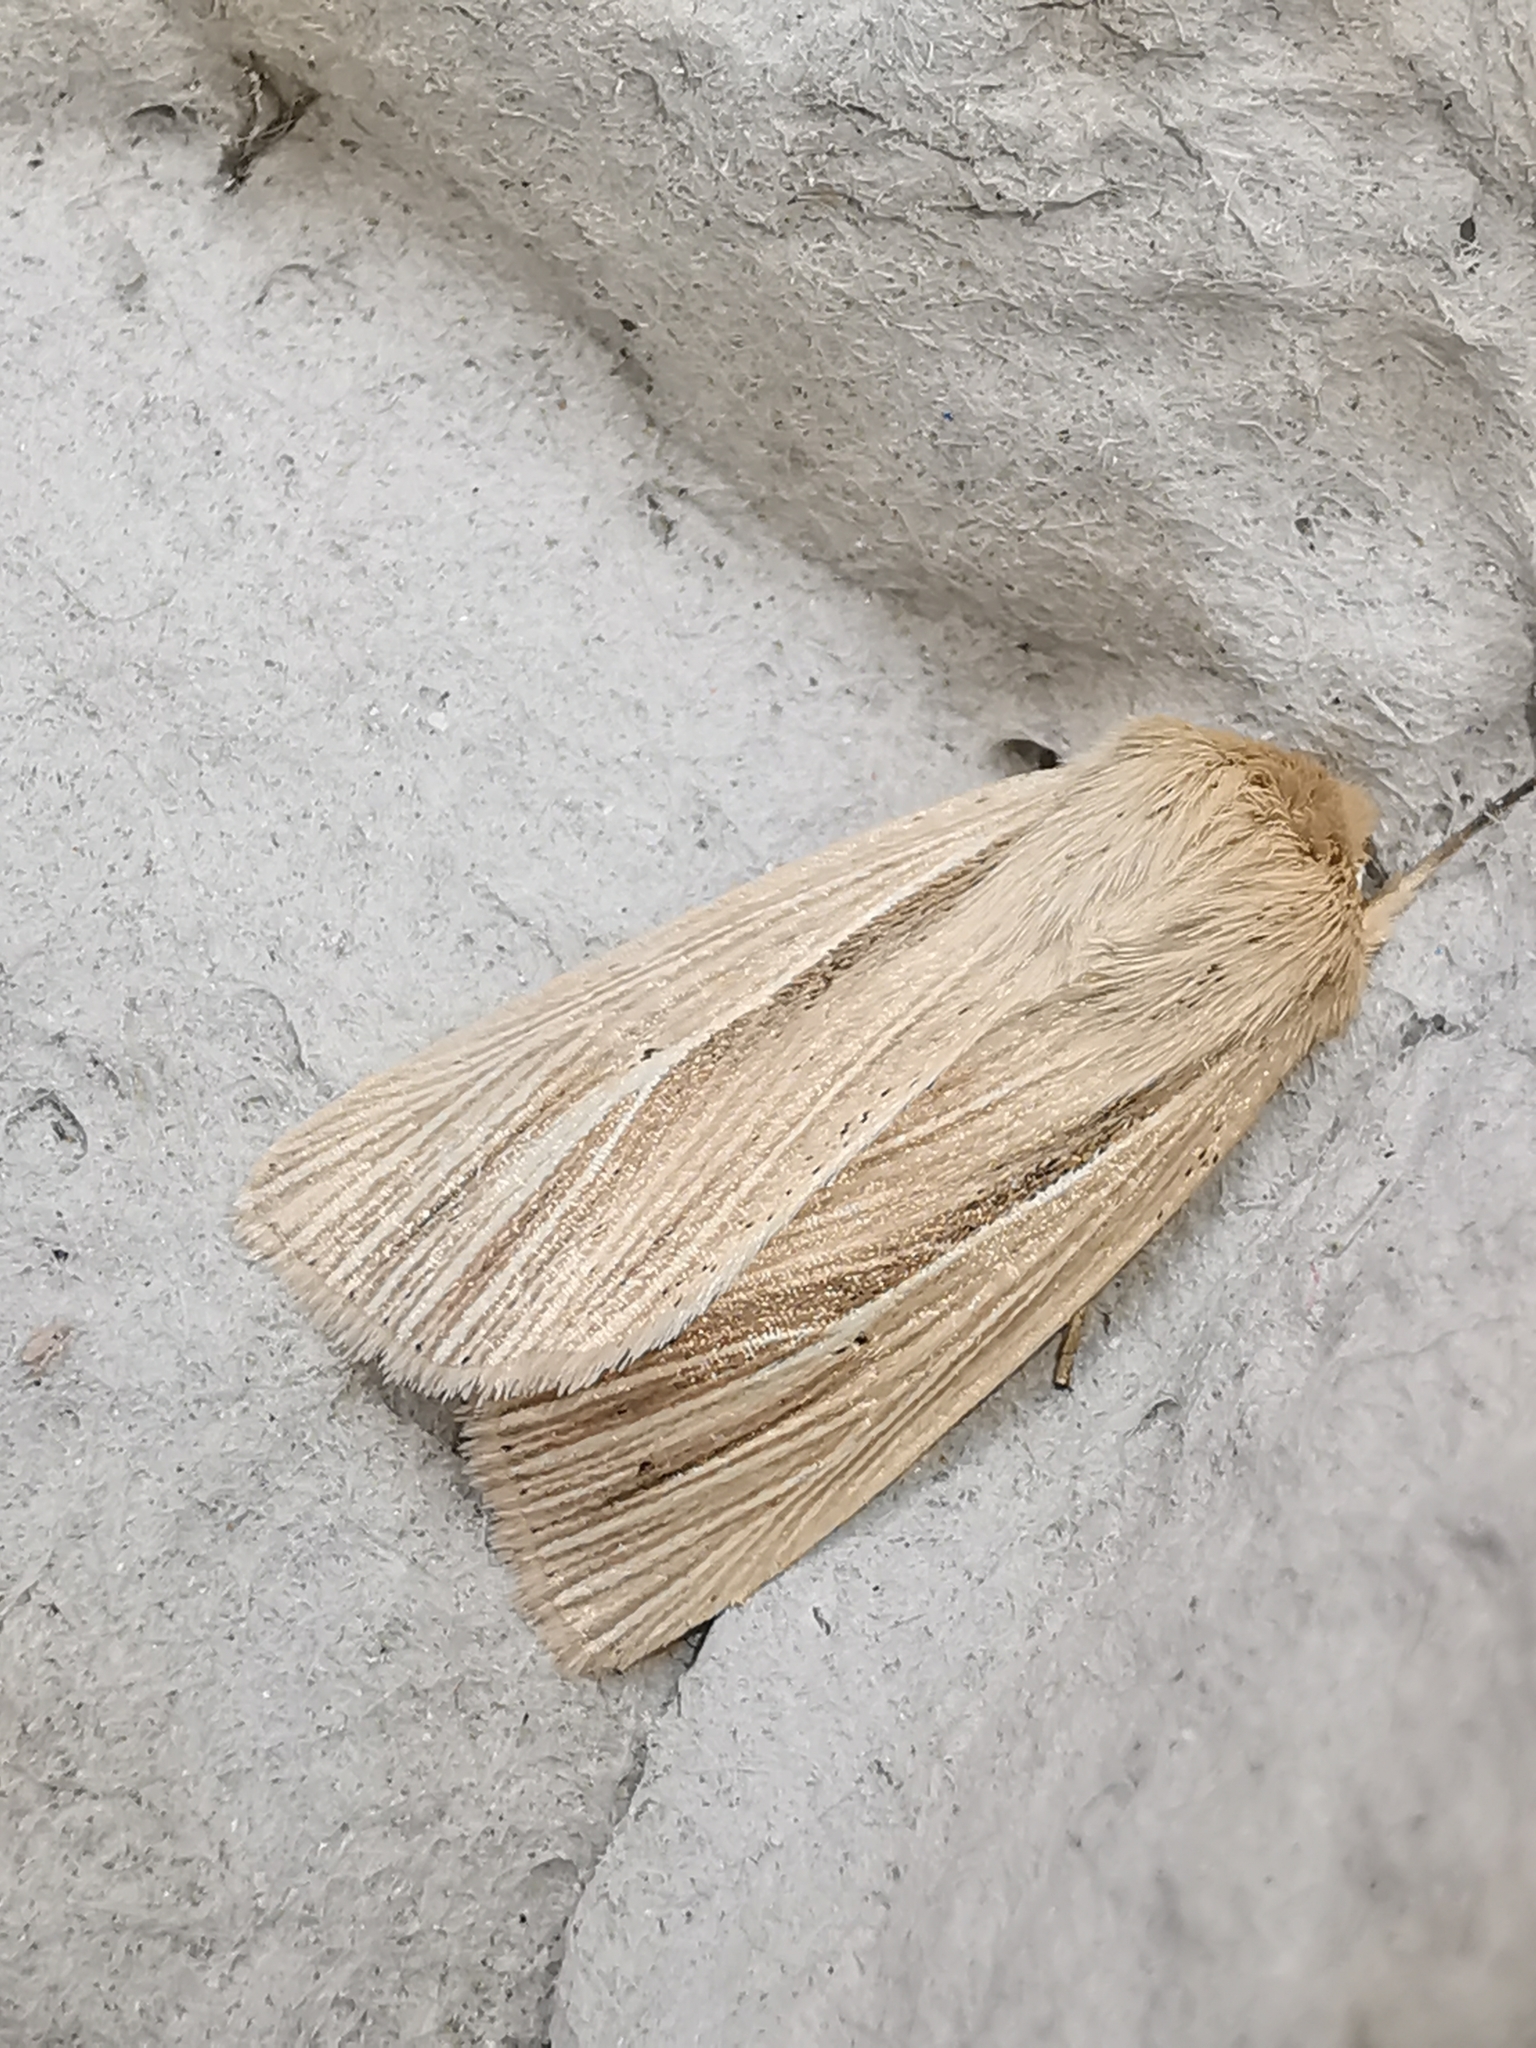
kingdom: Animalia
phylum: Arthropoda
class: Insecta
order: Lepidoptera
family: Noctuidae
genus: Mythimna
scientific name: Mythimna impura
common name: Smoky wainscot
